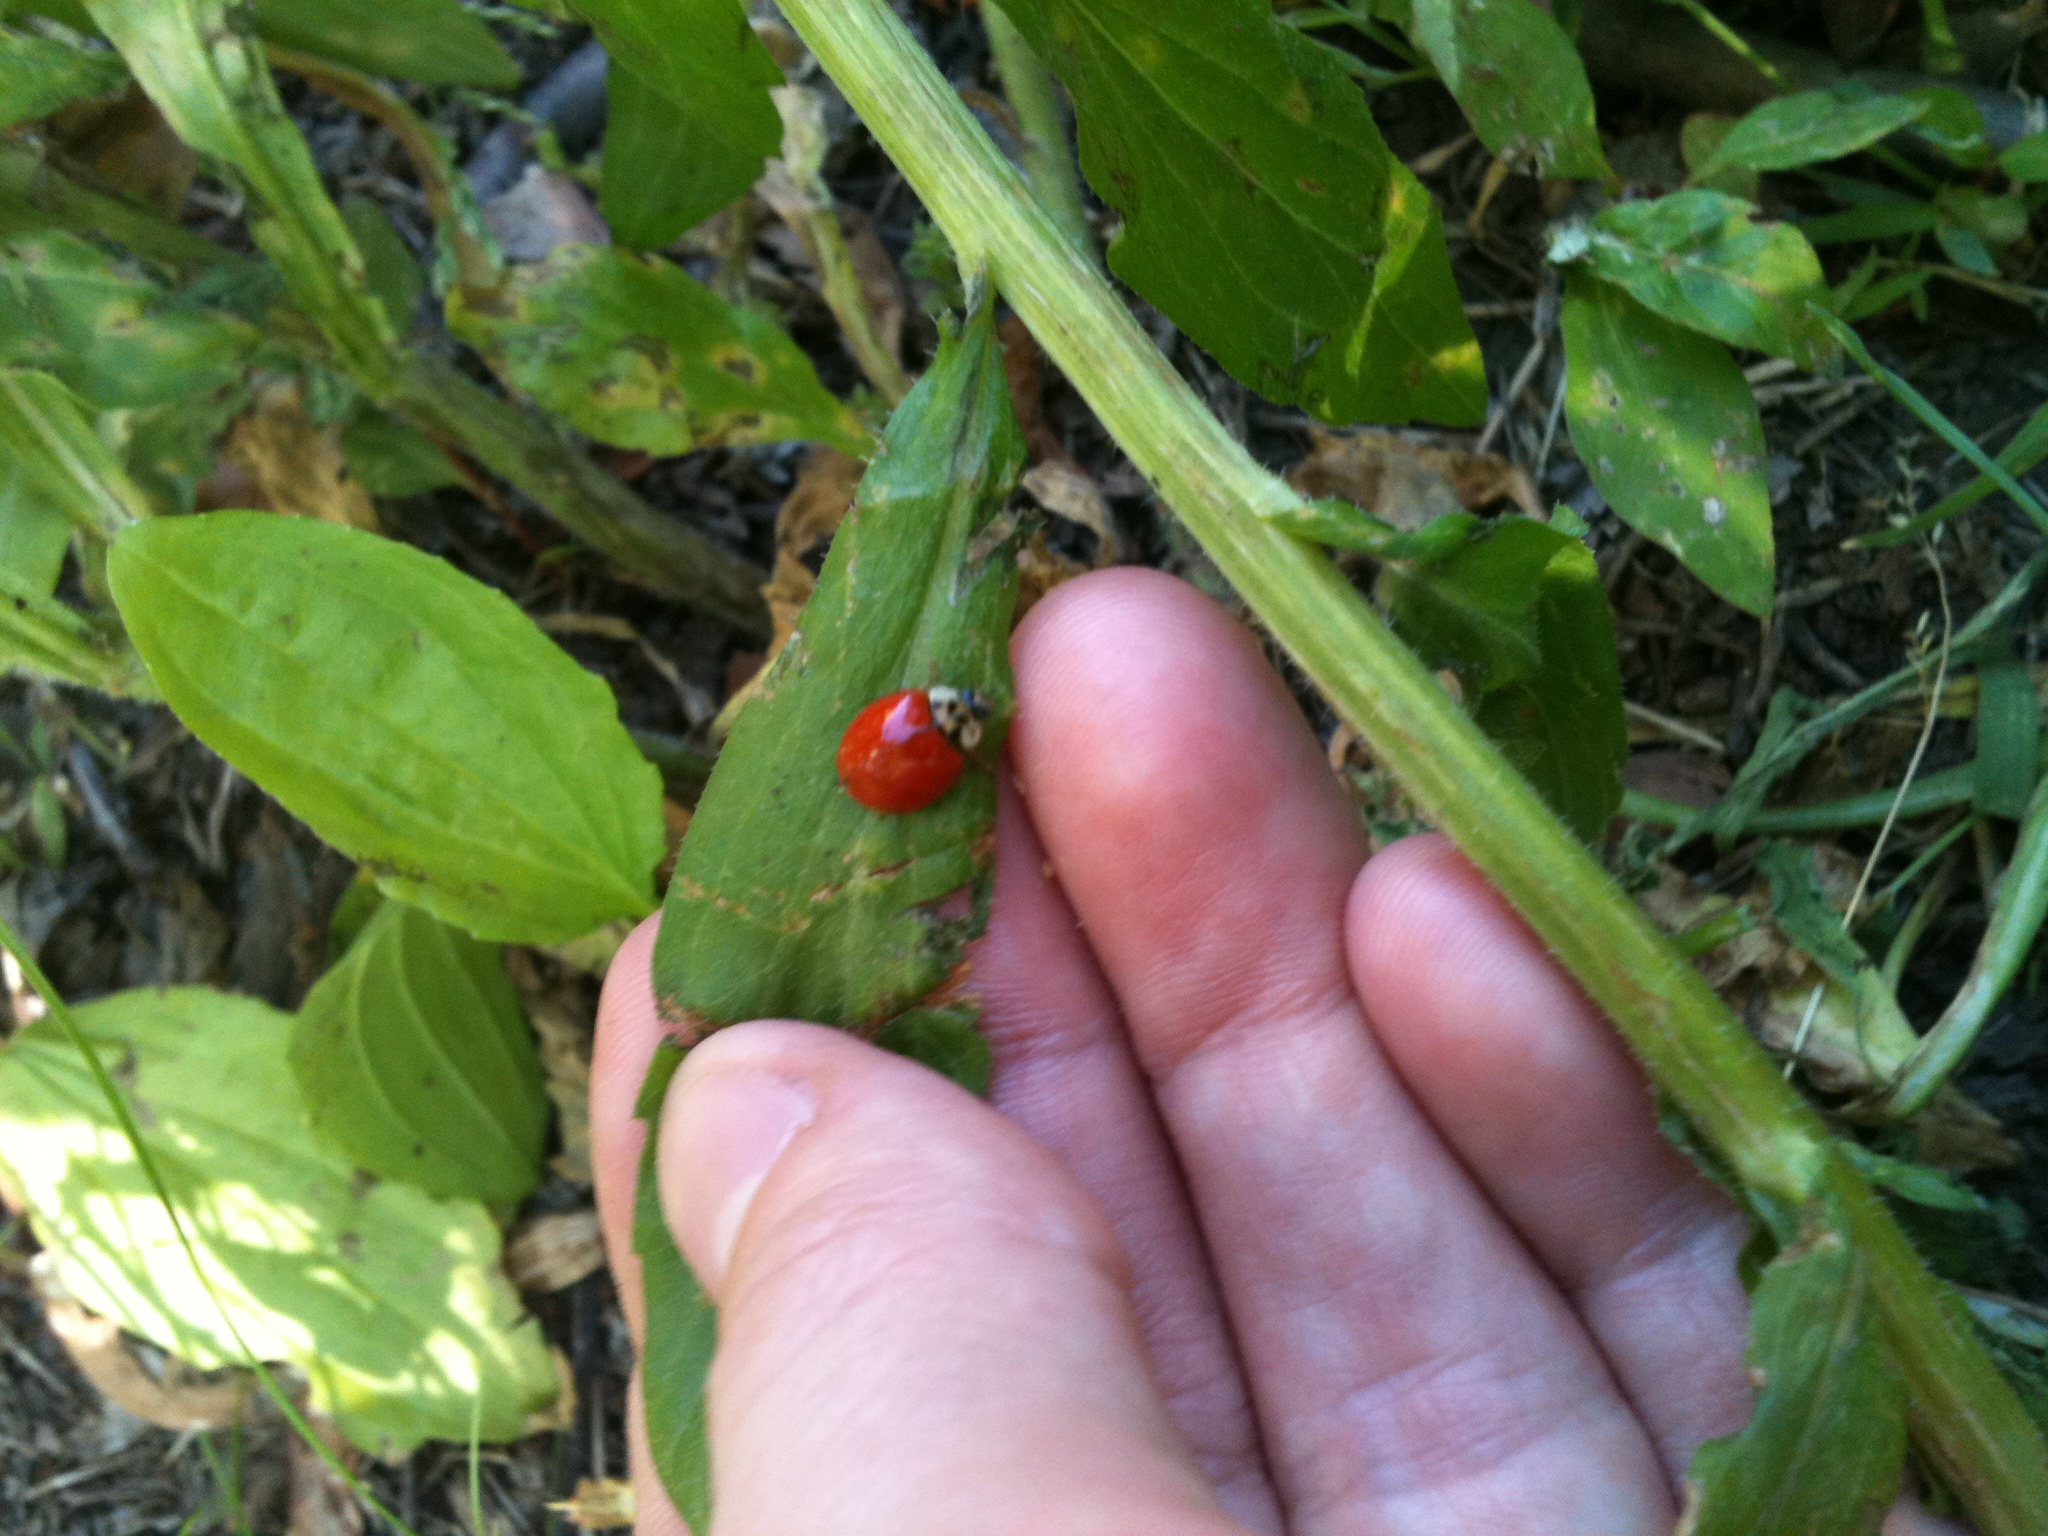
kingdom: Animalia
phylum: Arthropoda
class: Insecta
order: Coleoptera
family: Coccinellidae
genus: Harmonia
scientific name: Harmonia axyridis
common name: Harlequin ladybird
